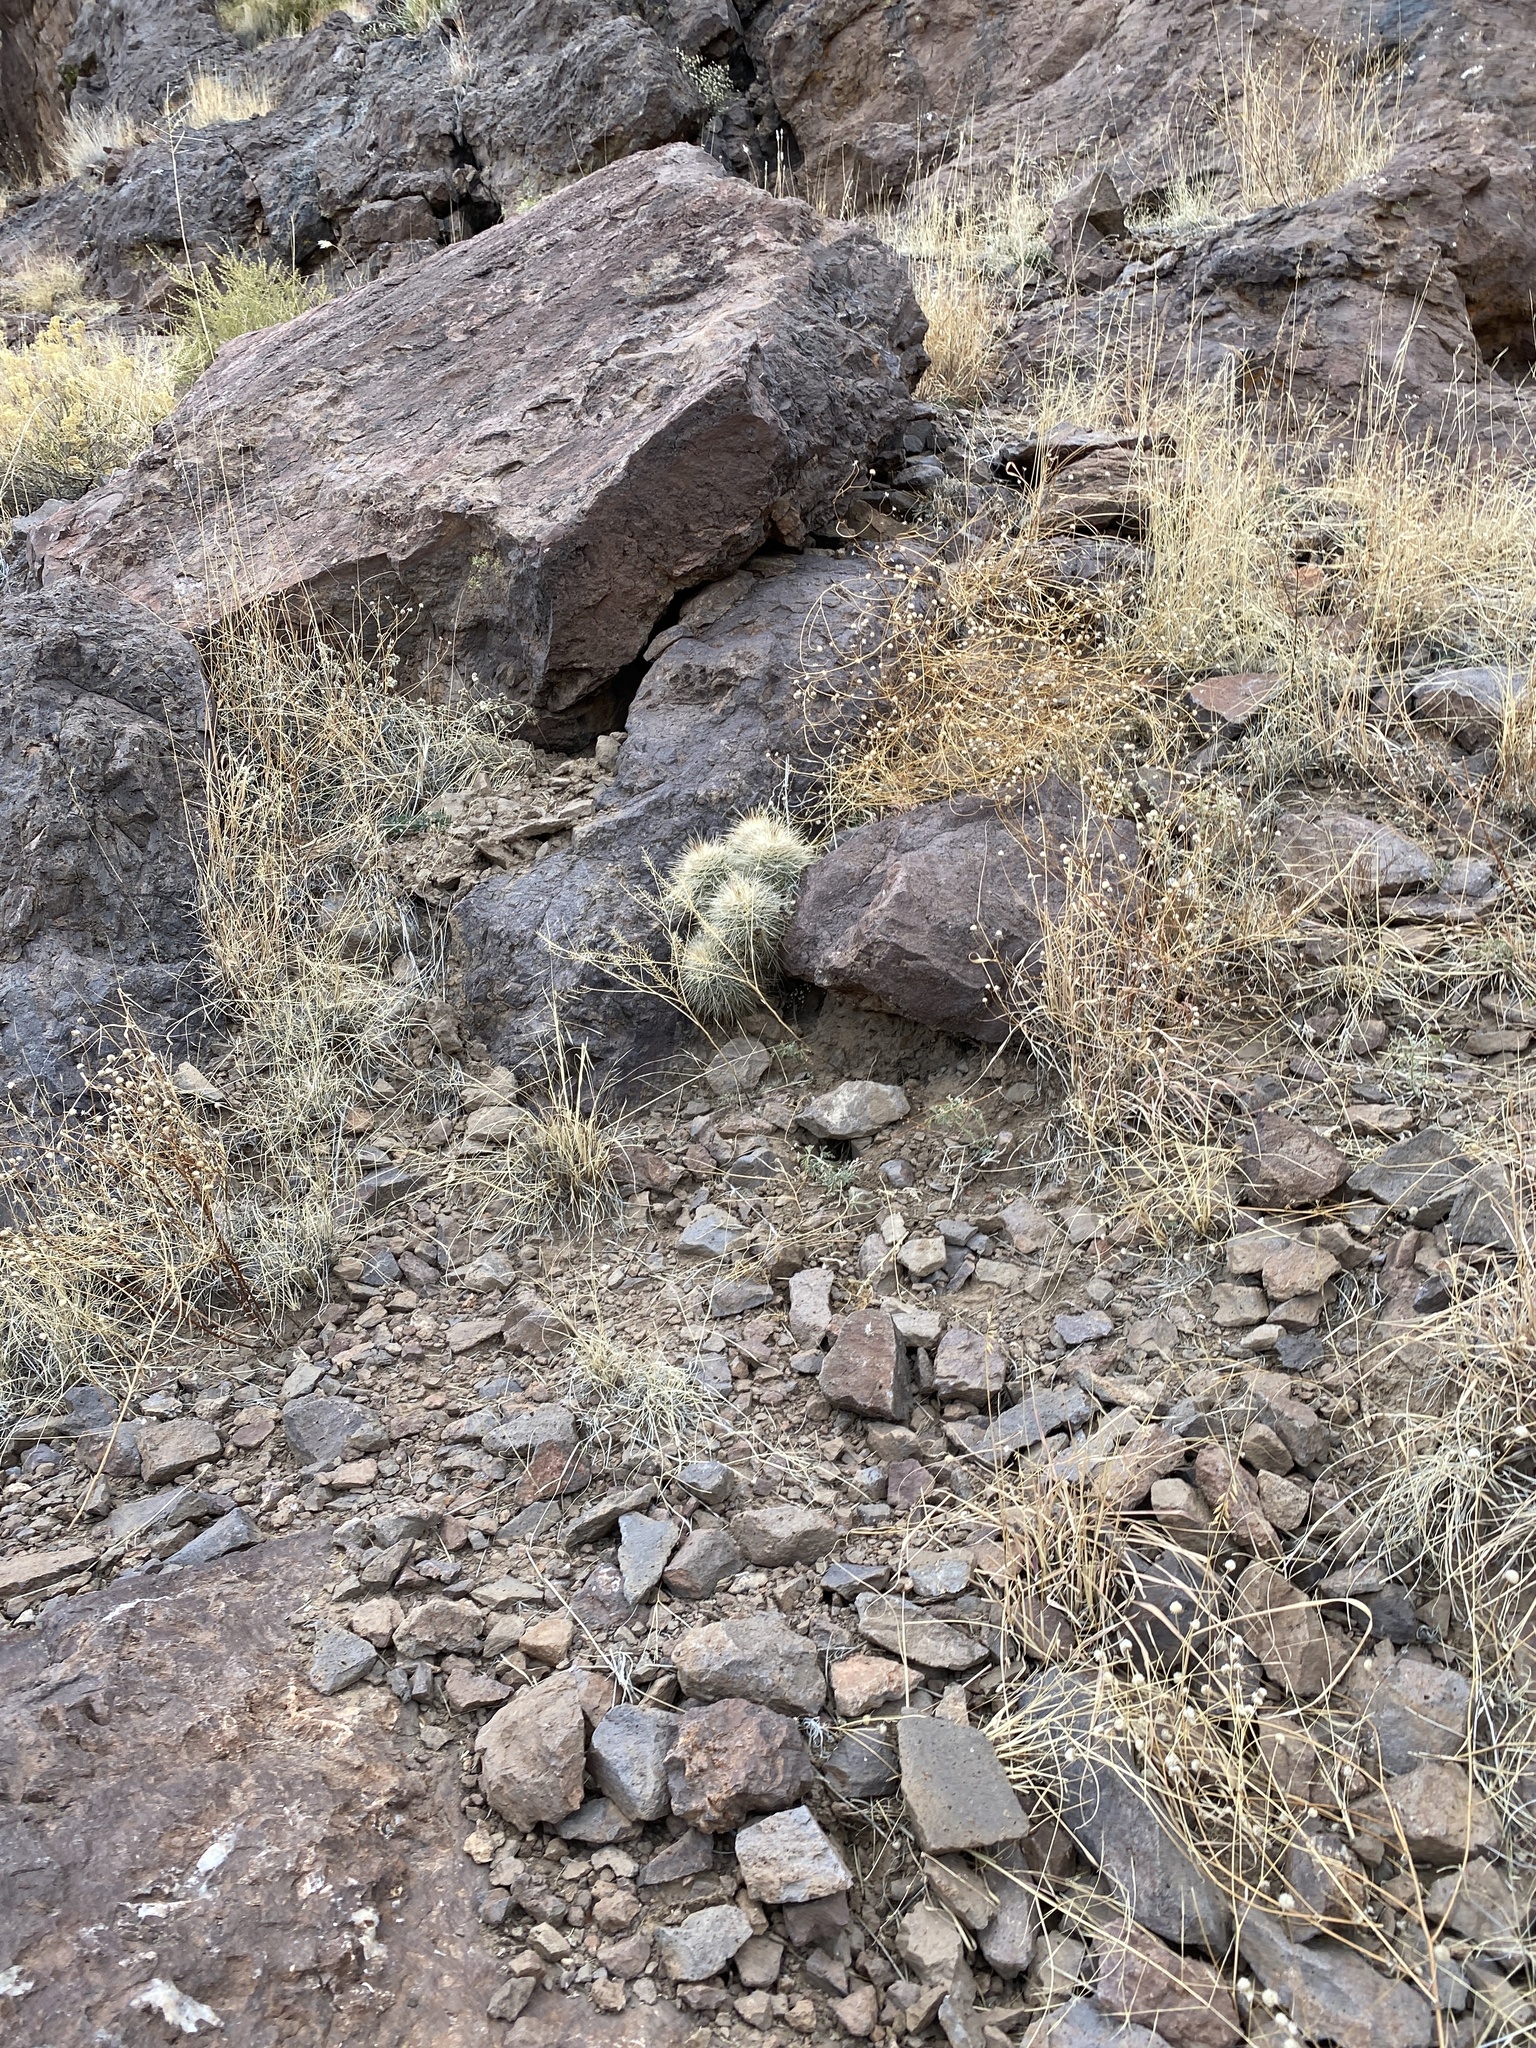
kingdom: Plantae
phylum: Tracheophyta
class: Magnoliopsida
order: Caryophyllales
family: Cactaceae
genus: Echinocereus
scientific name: Echinocereus coccineus
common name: Scarlet hedgehog cactus
